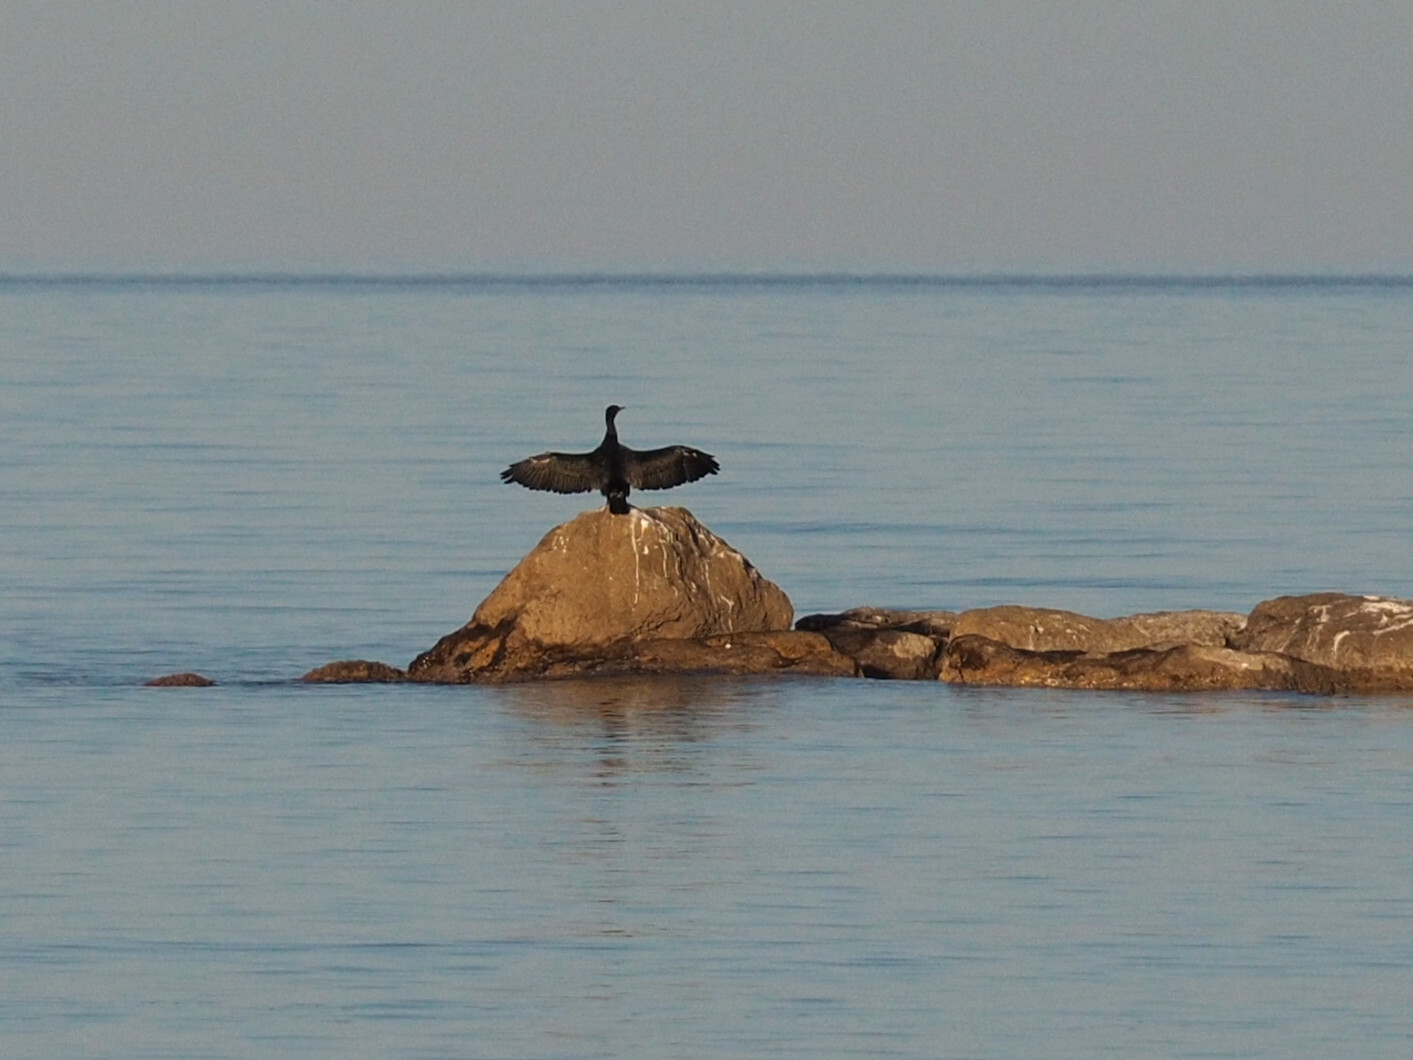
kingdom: Animalia
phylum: Chordata
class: Aves
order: Suliformes
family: Phalacrocoracidae
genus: Phalacrocorax
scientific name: Phalacrocorax carbo
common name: Great cormorant
